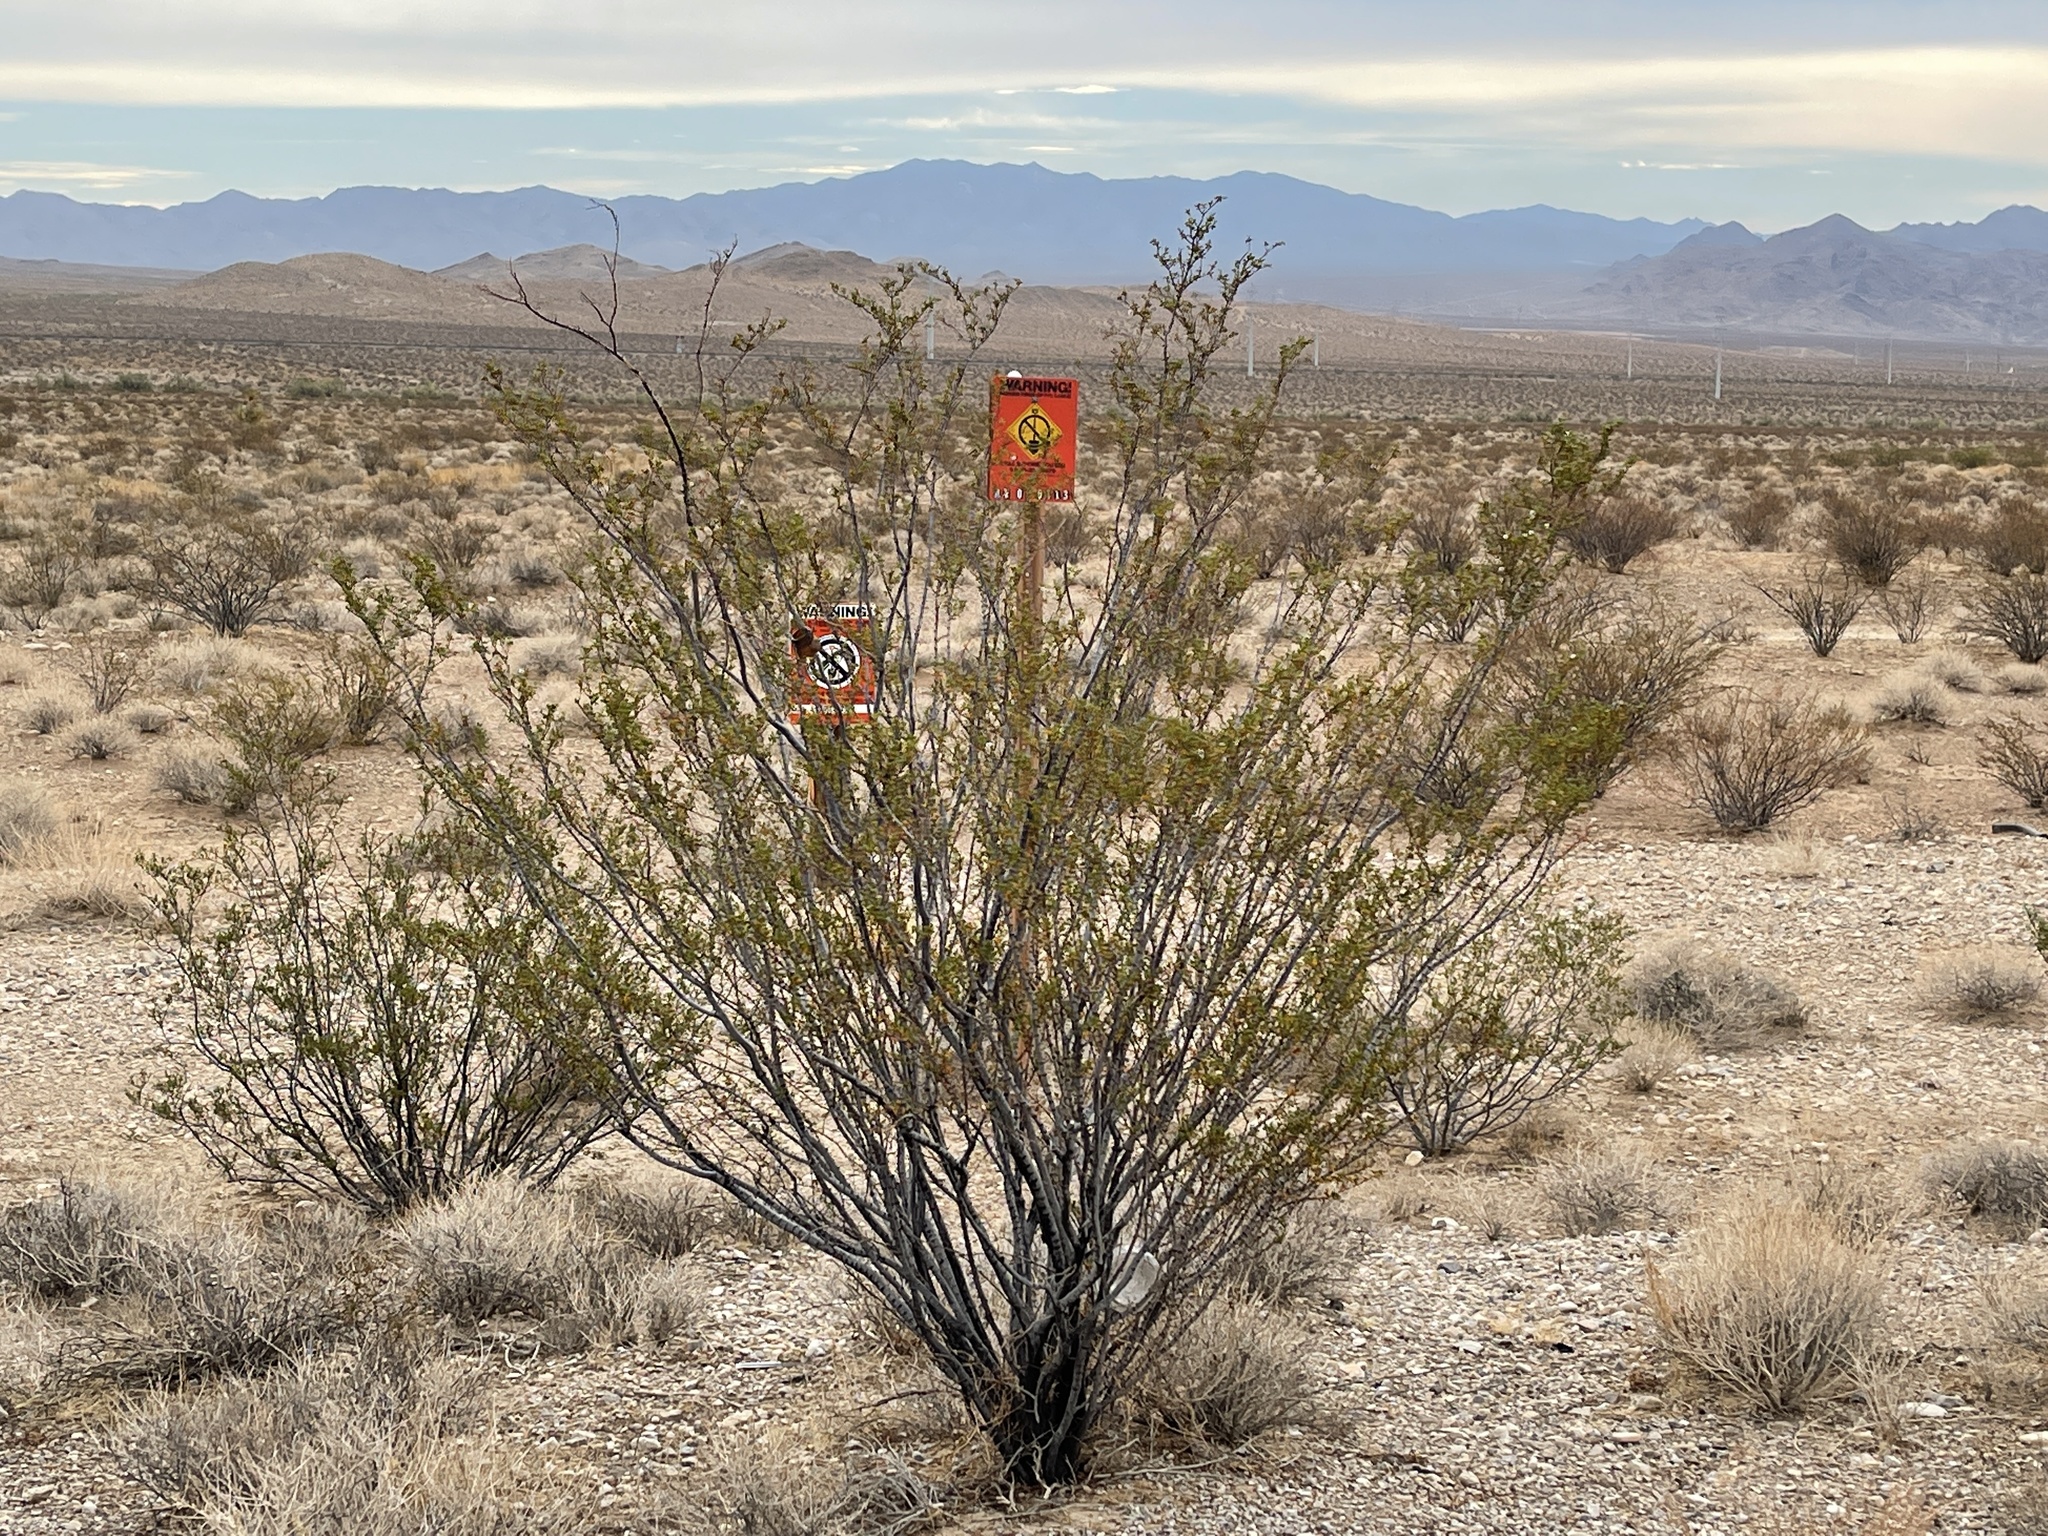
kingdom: Plantae
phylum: Tracheophyta
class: Magnoliopsida
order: Zygophyllales
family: Zygophyllaceae
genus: Larrea
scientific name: Larrea tridentata
